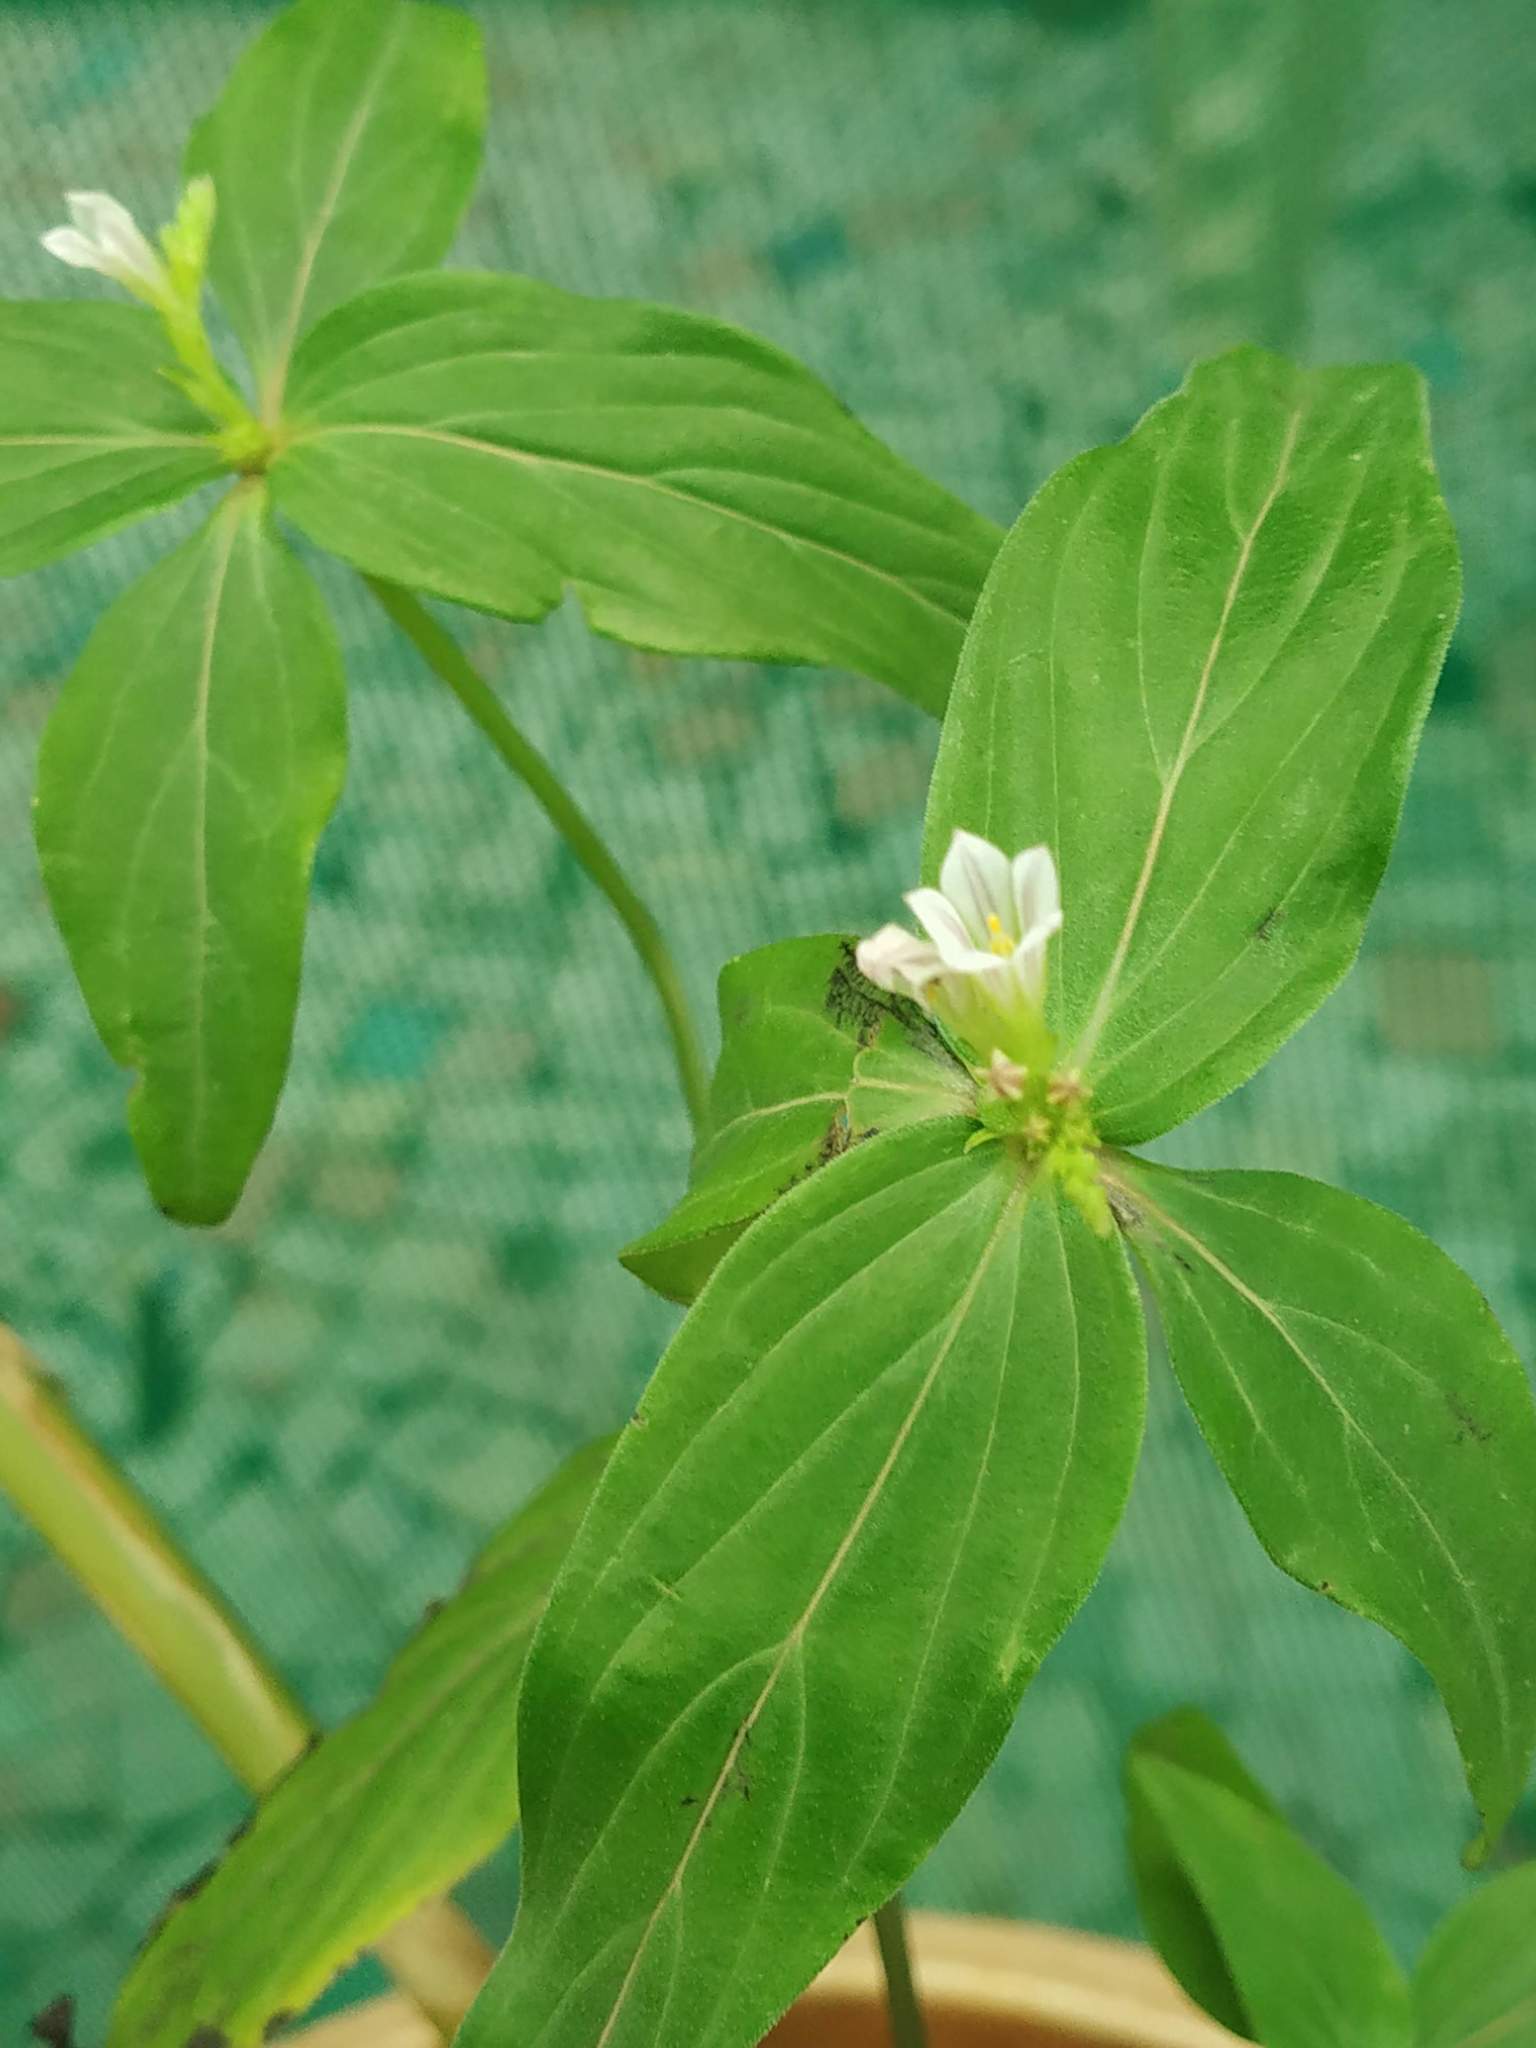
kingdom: Plantae
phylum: Tracheophyta
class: Magnoliopsida
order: Gentianales
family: Loganiaceae
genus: Spigelia
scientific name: Spigelia anthelmia
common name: West indian-pink
